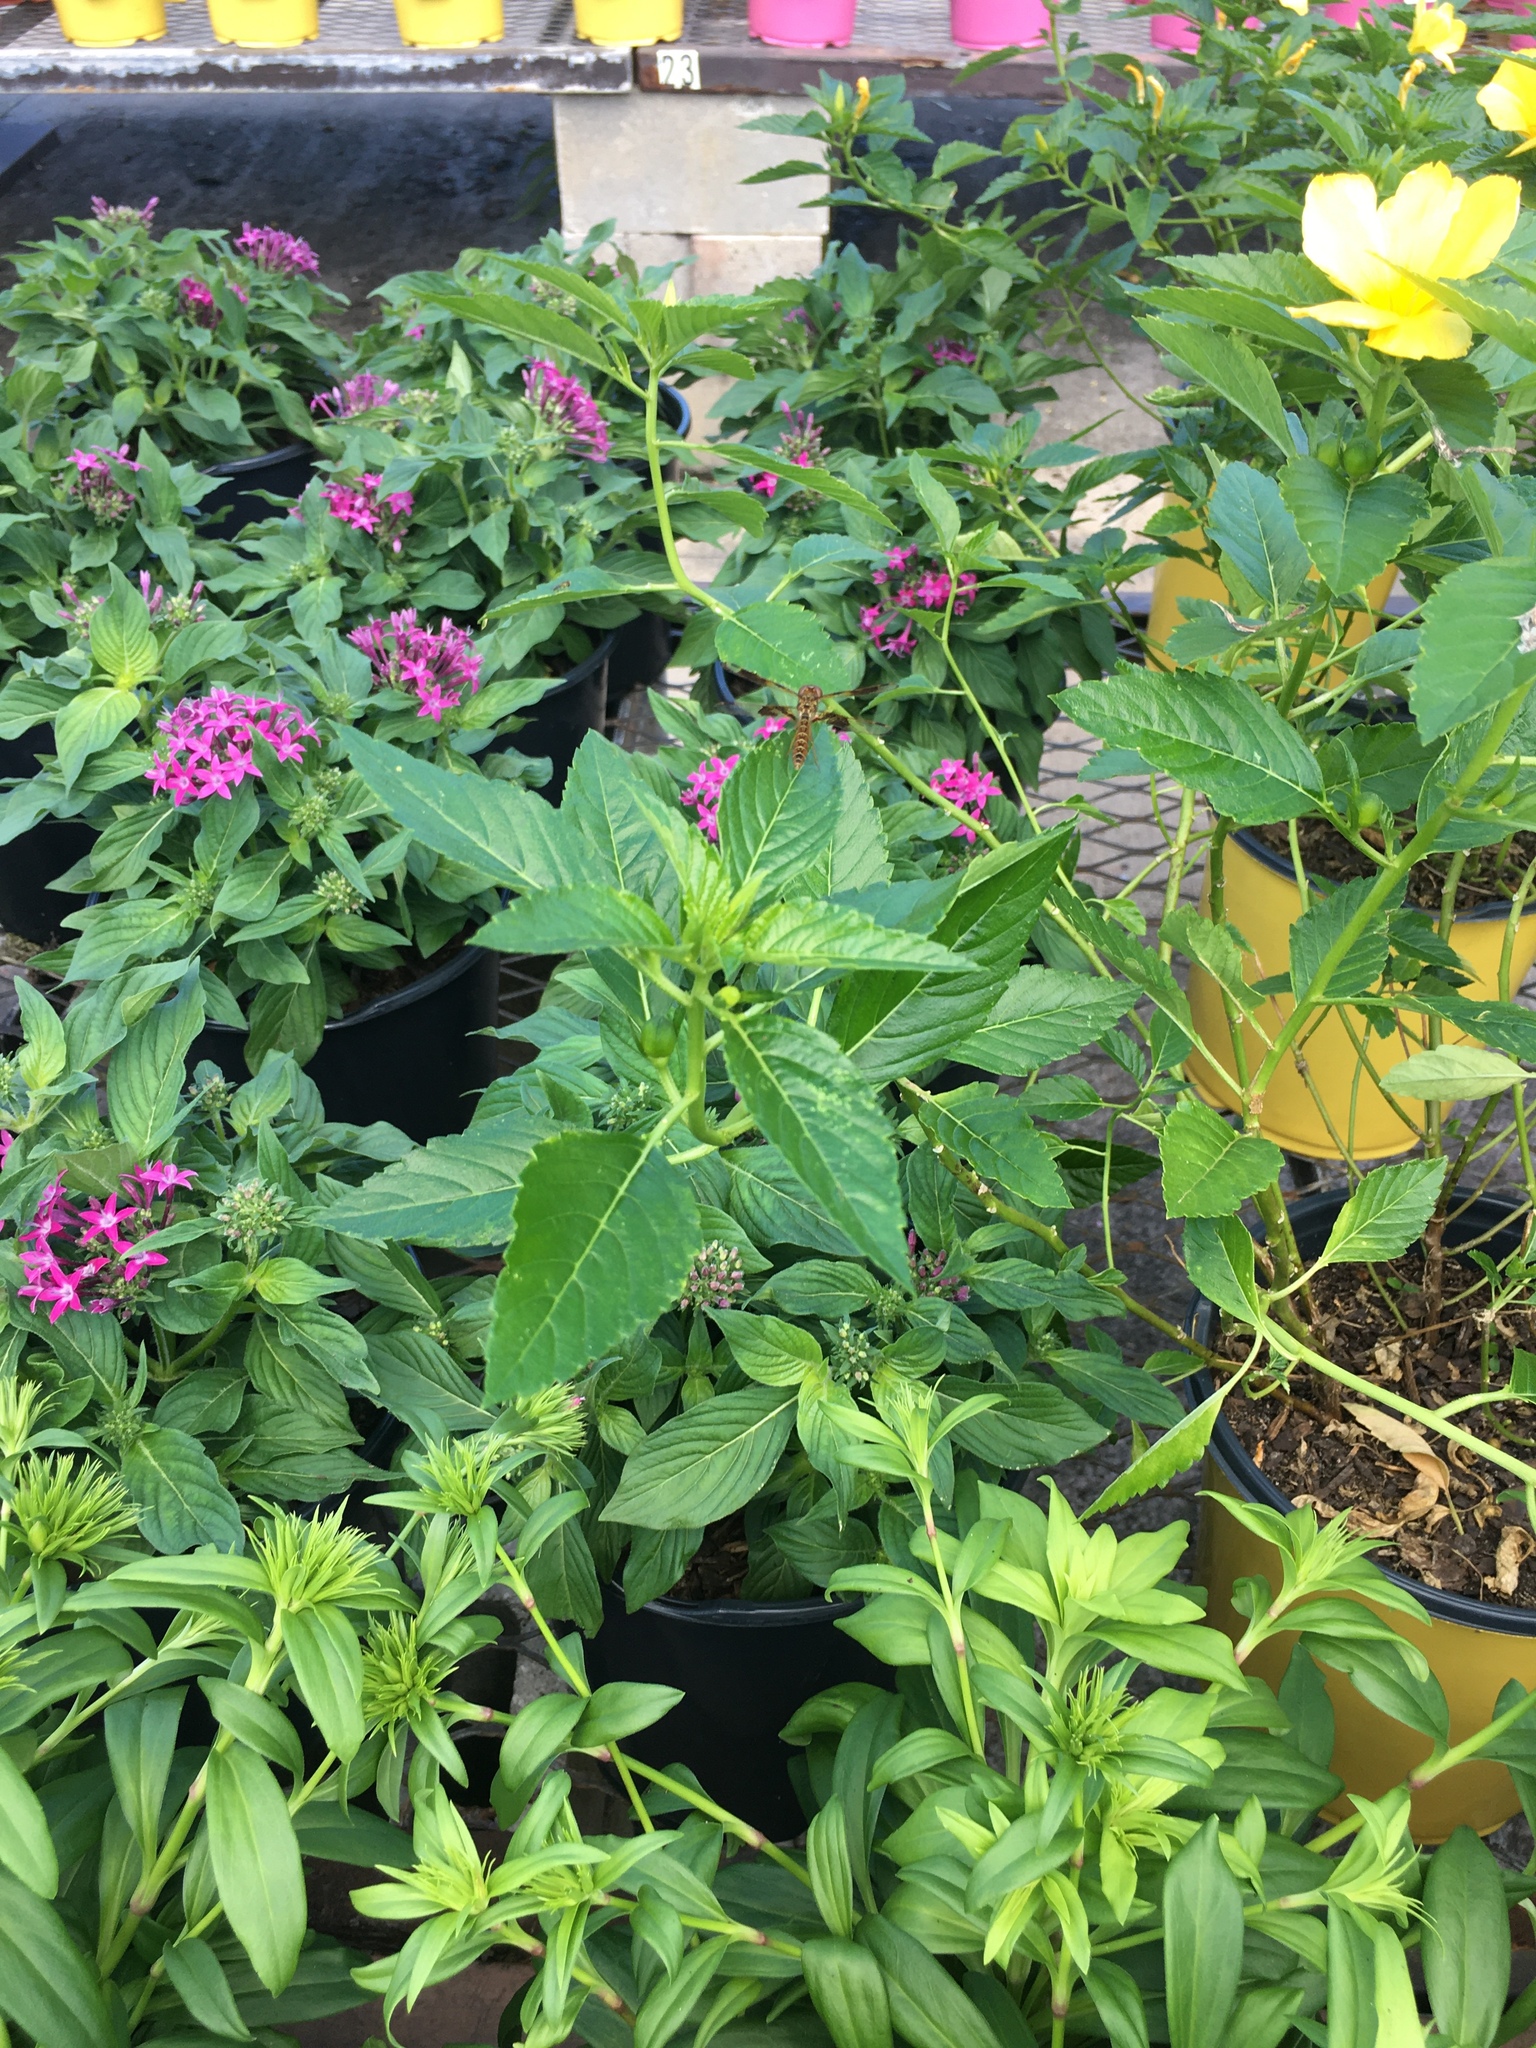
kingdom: Animalia
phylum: Arthropoda
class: Insecta
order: Odonata
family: Libellulidae
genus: Perithemis
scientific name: Perithemis tenera
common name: Eastern amberwing
